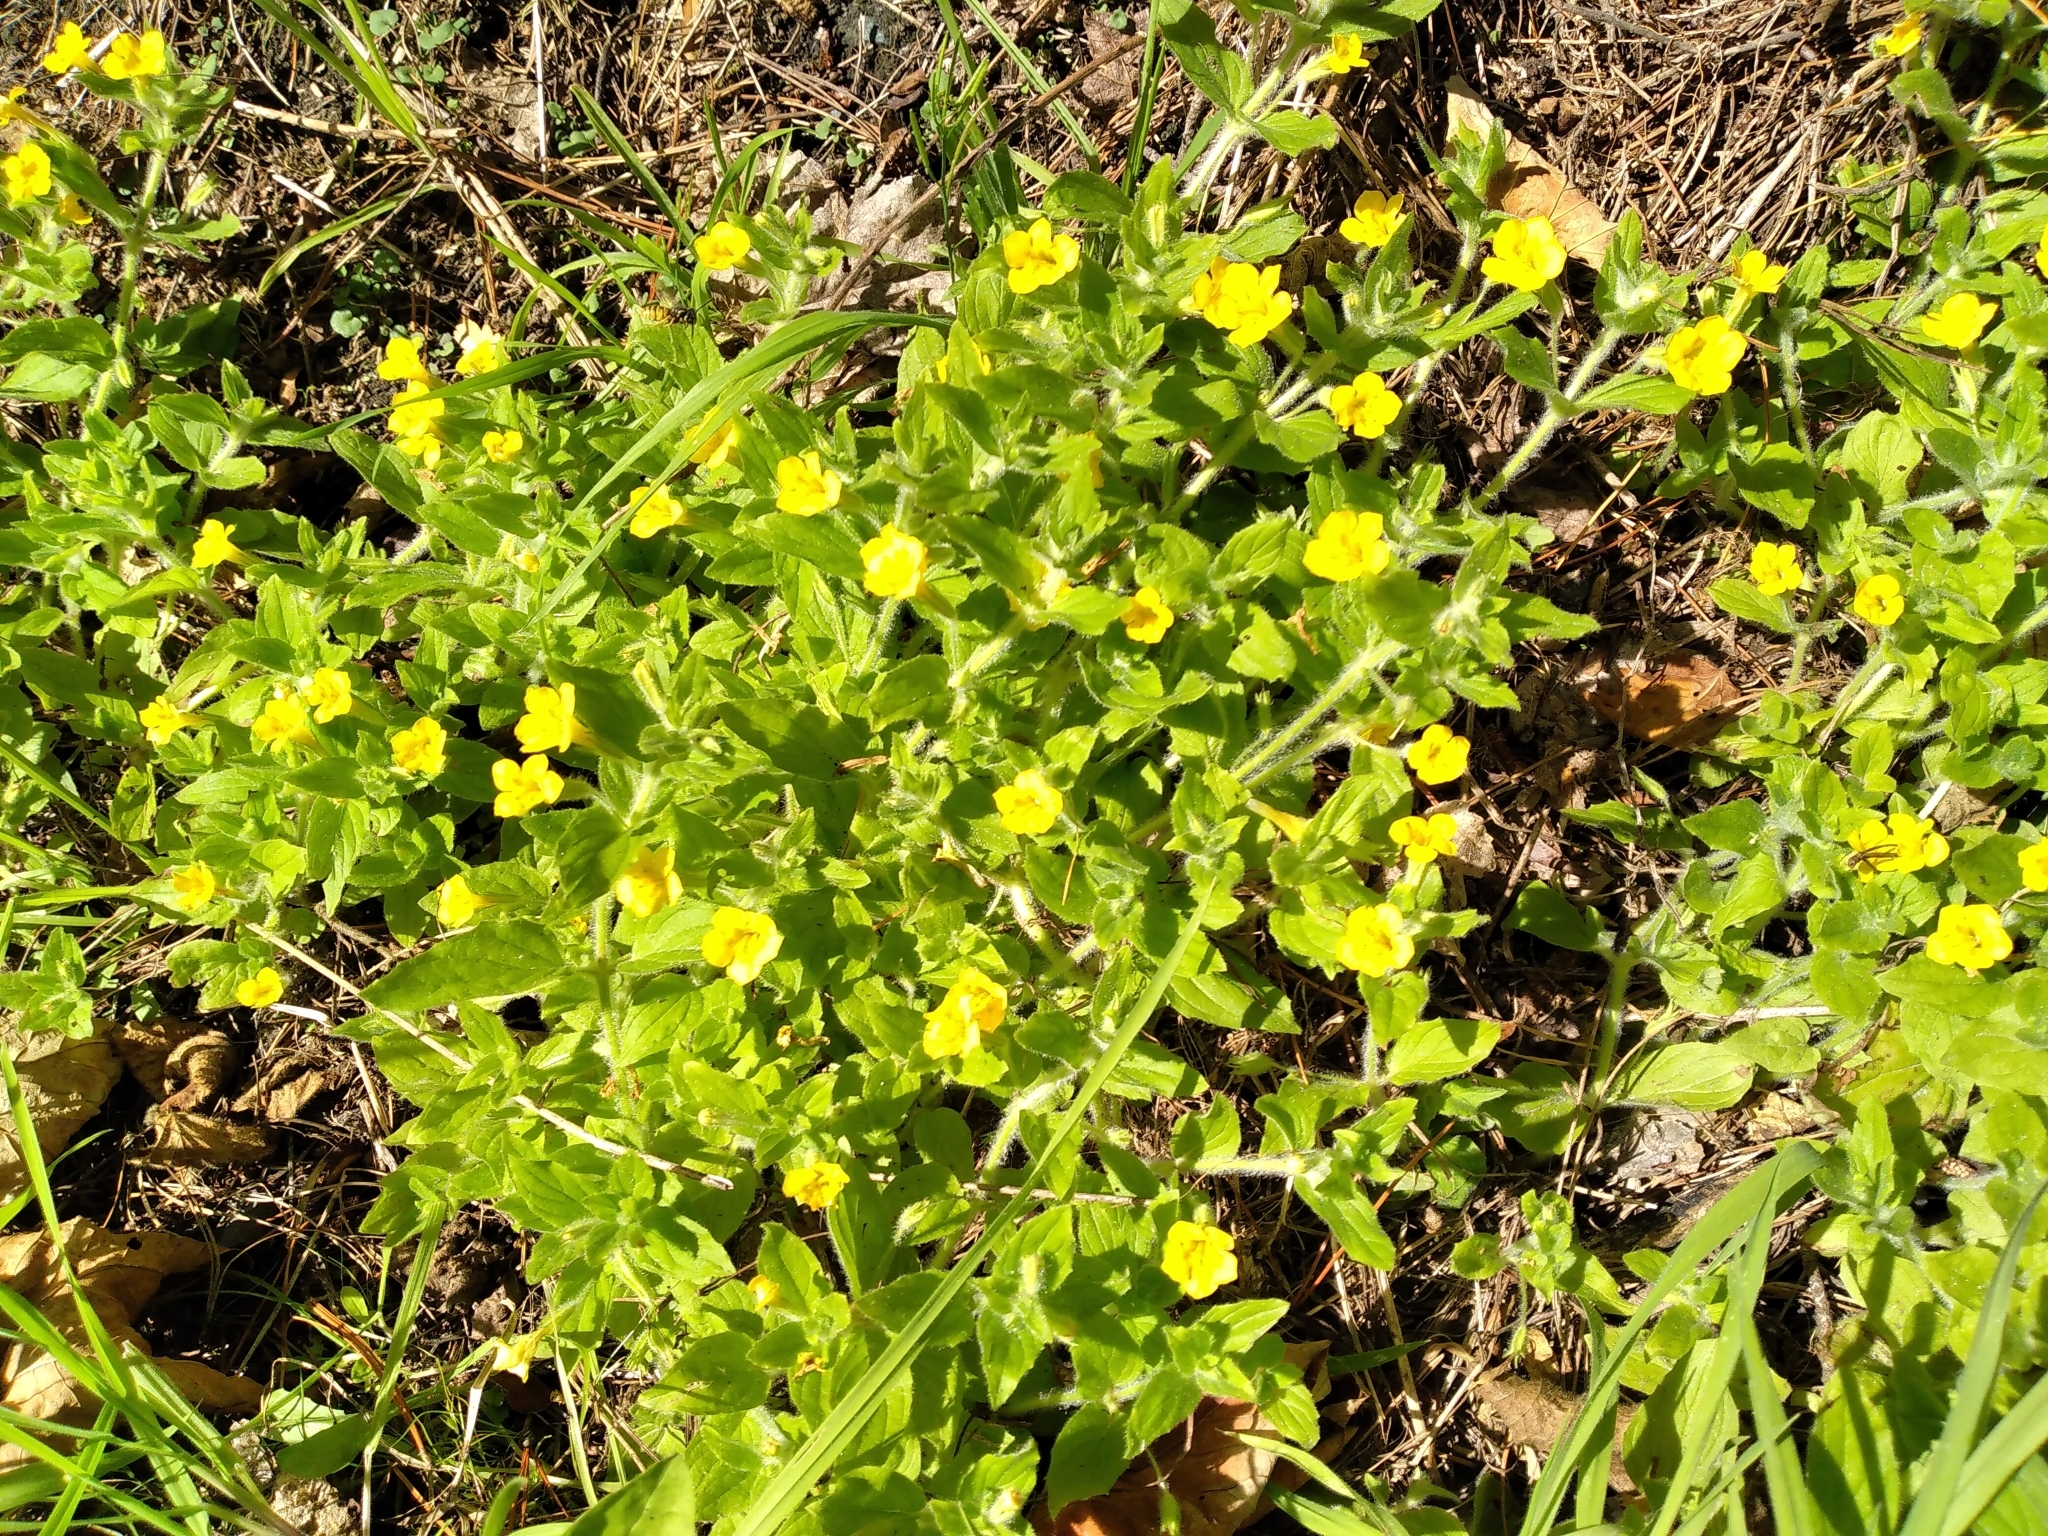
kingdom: Plantae
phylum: Tracheophyta
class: Magnoliopsida
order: Lamiales
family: Phrymaceae
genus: Erythranthe
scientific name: Erythranthe moschata
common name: Muskflower
